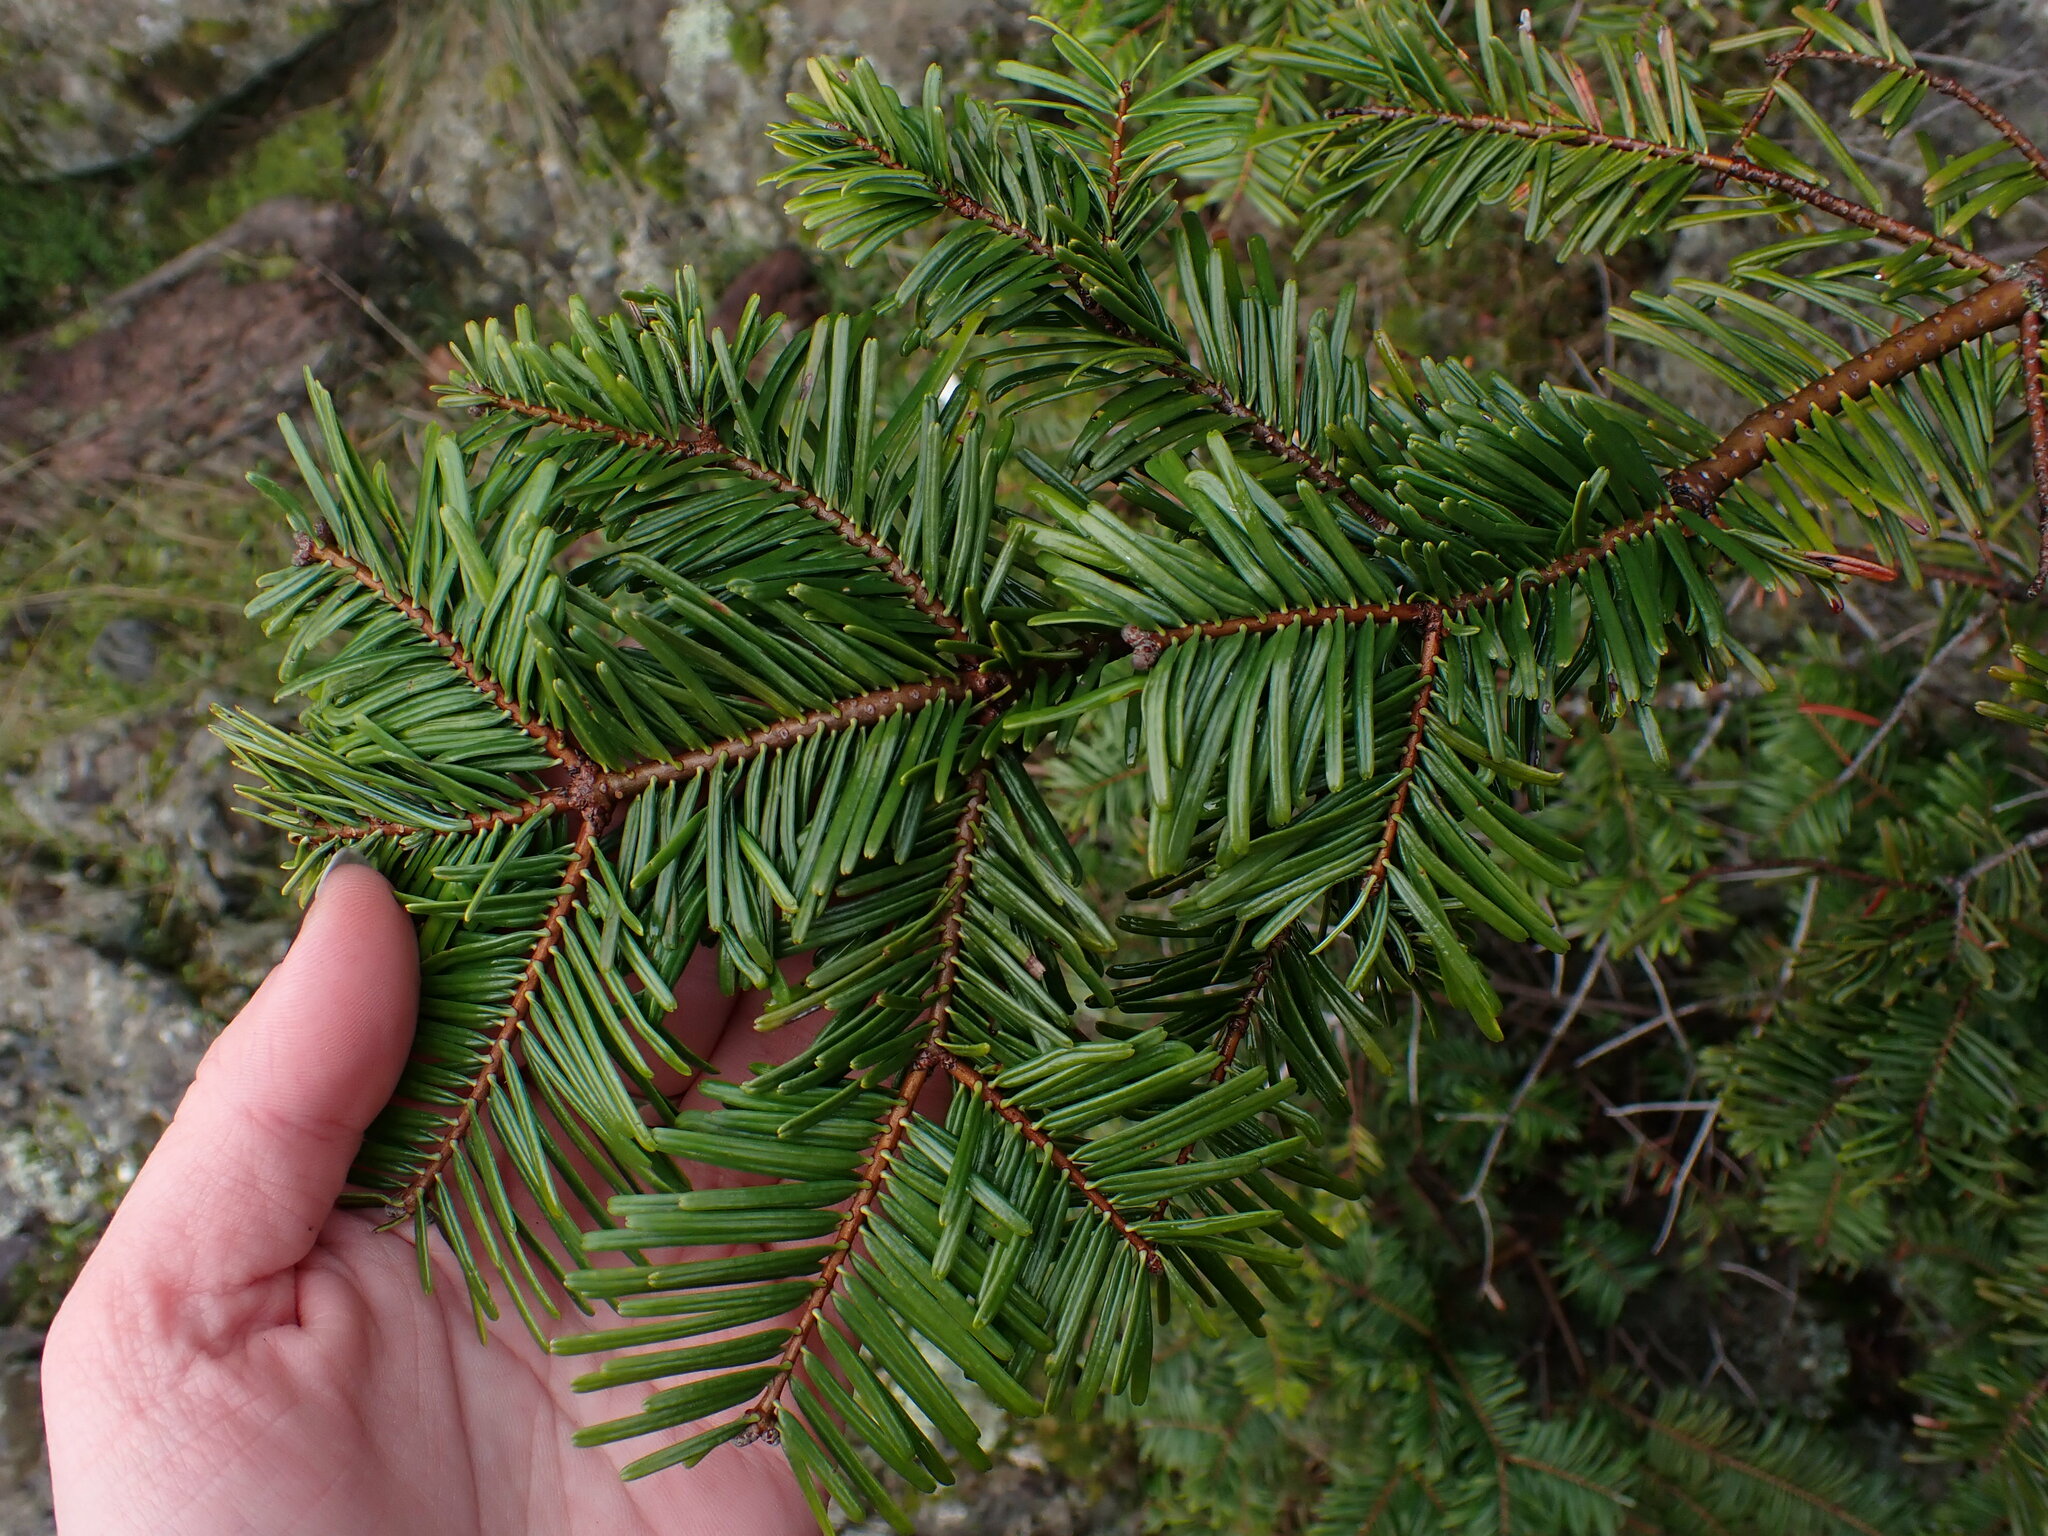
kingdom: Plantae
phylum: Tracheophyta
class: Pinopsida
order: Pinales
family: Pinaceae
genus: Abies
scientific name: Abies grandis
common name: Giant fir
